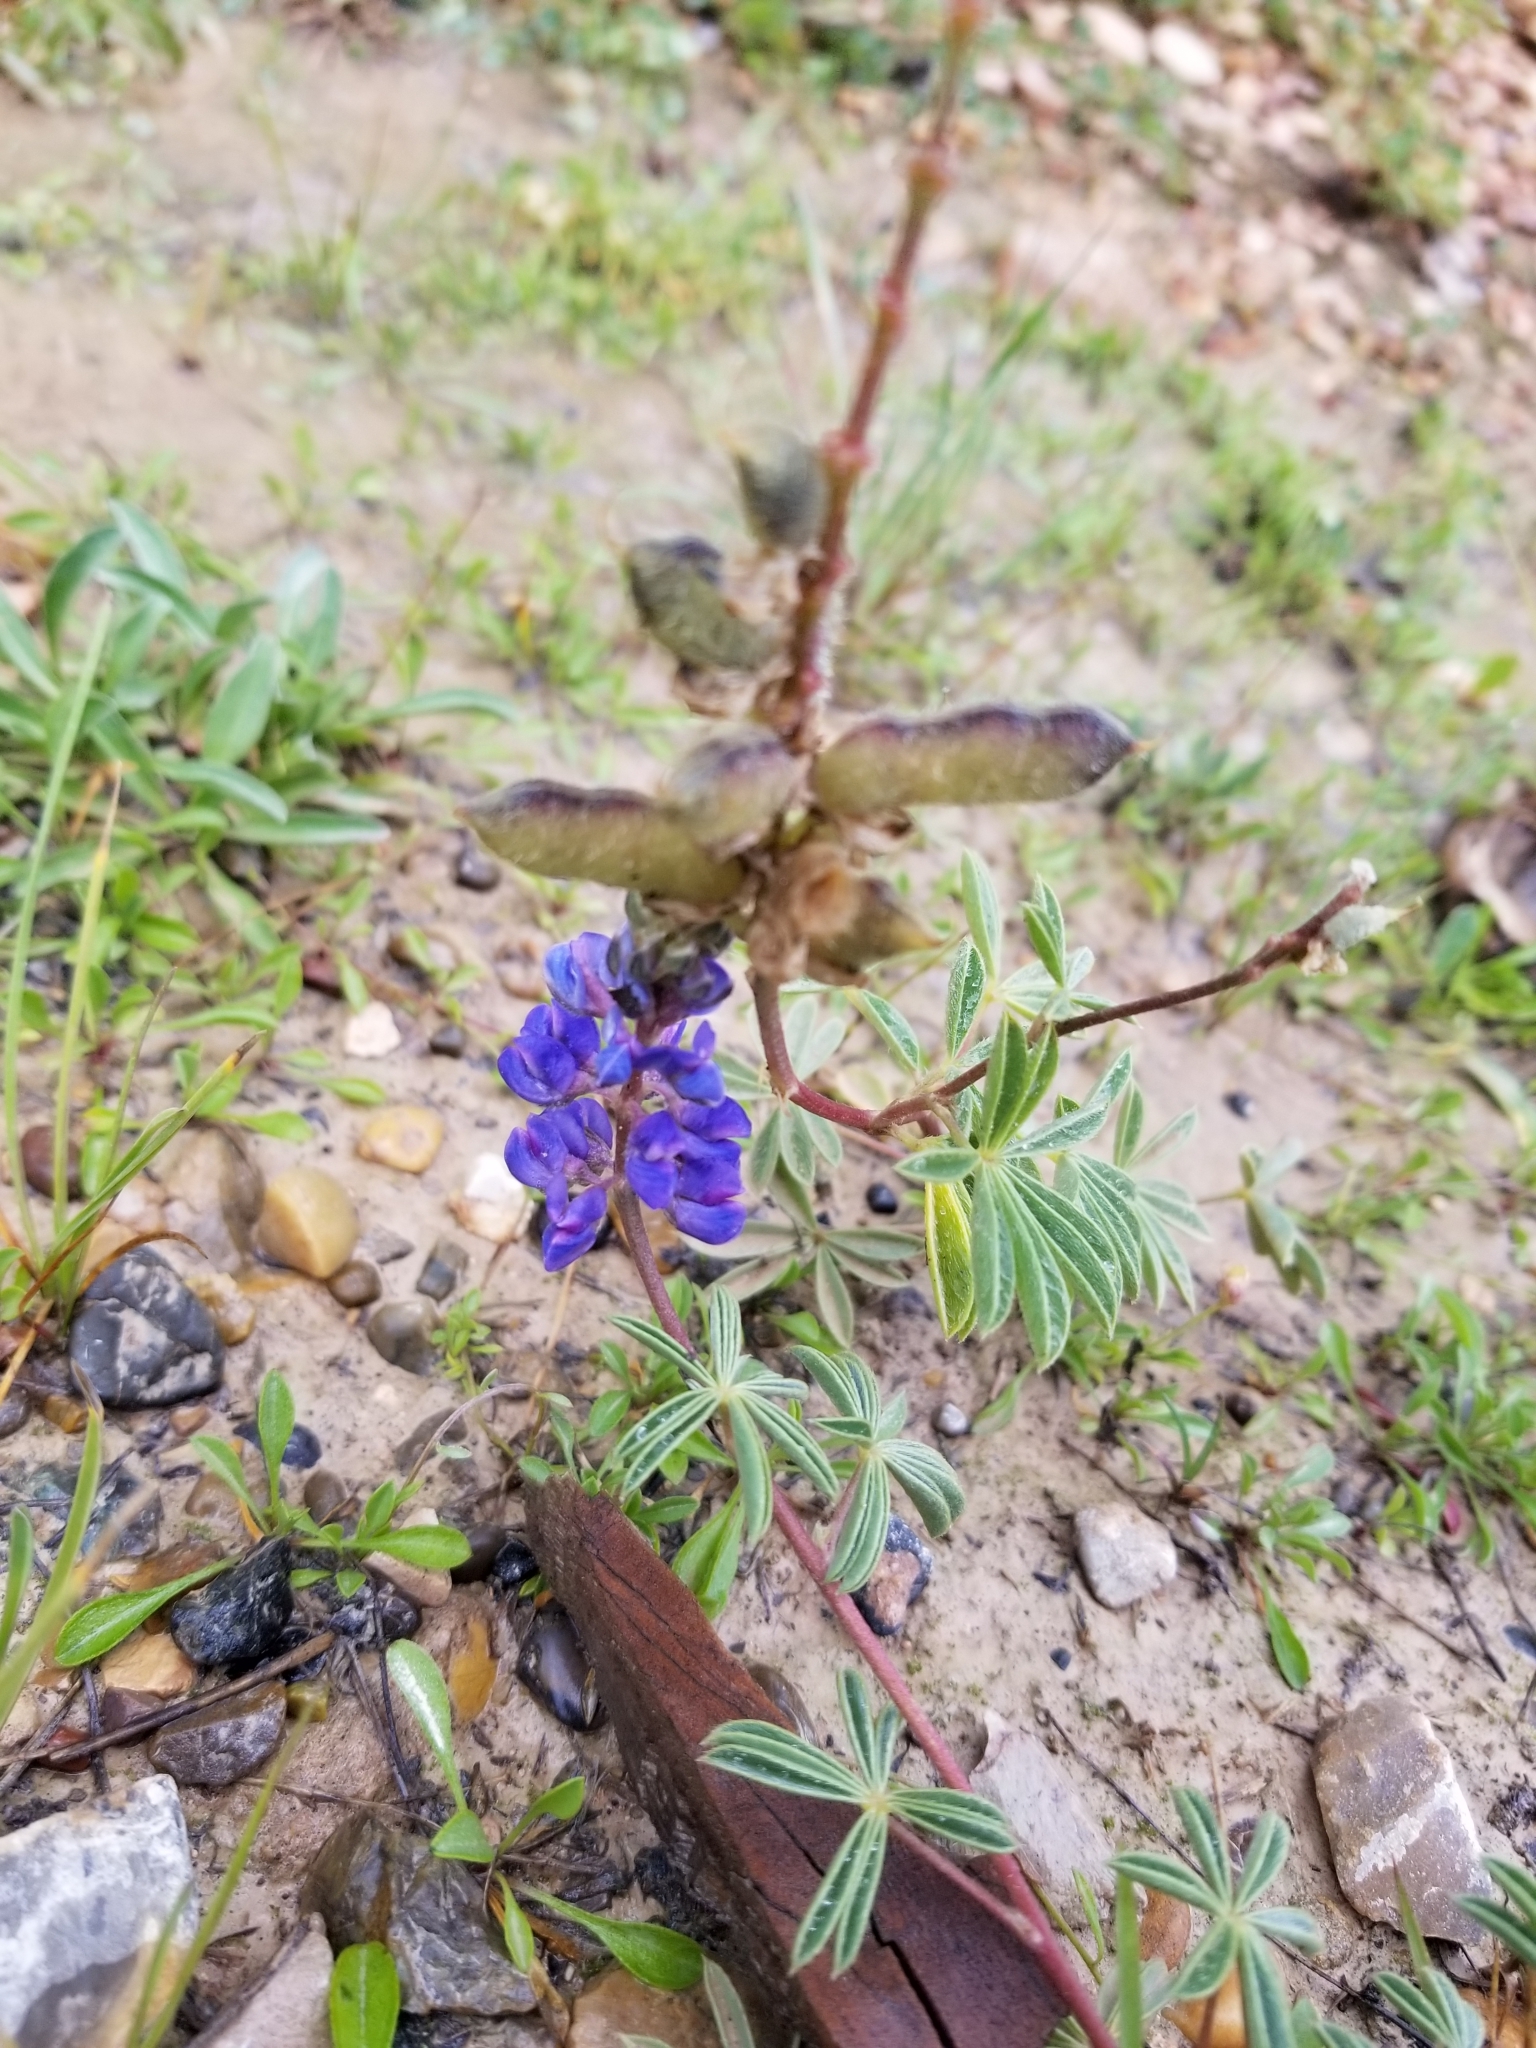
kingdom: Plantae
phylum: Tracheophyta
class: Magnoliopsida
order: Fabales
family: Fabaceae
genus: Lupinus
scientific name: Lupinus argenteus
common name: Silvery lupine
